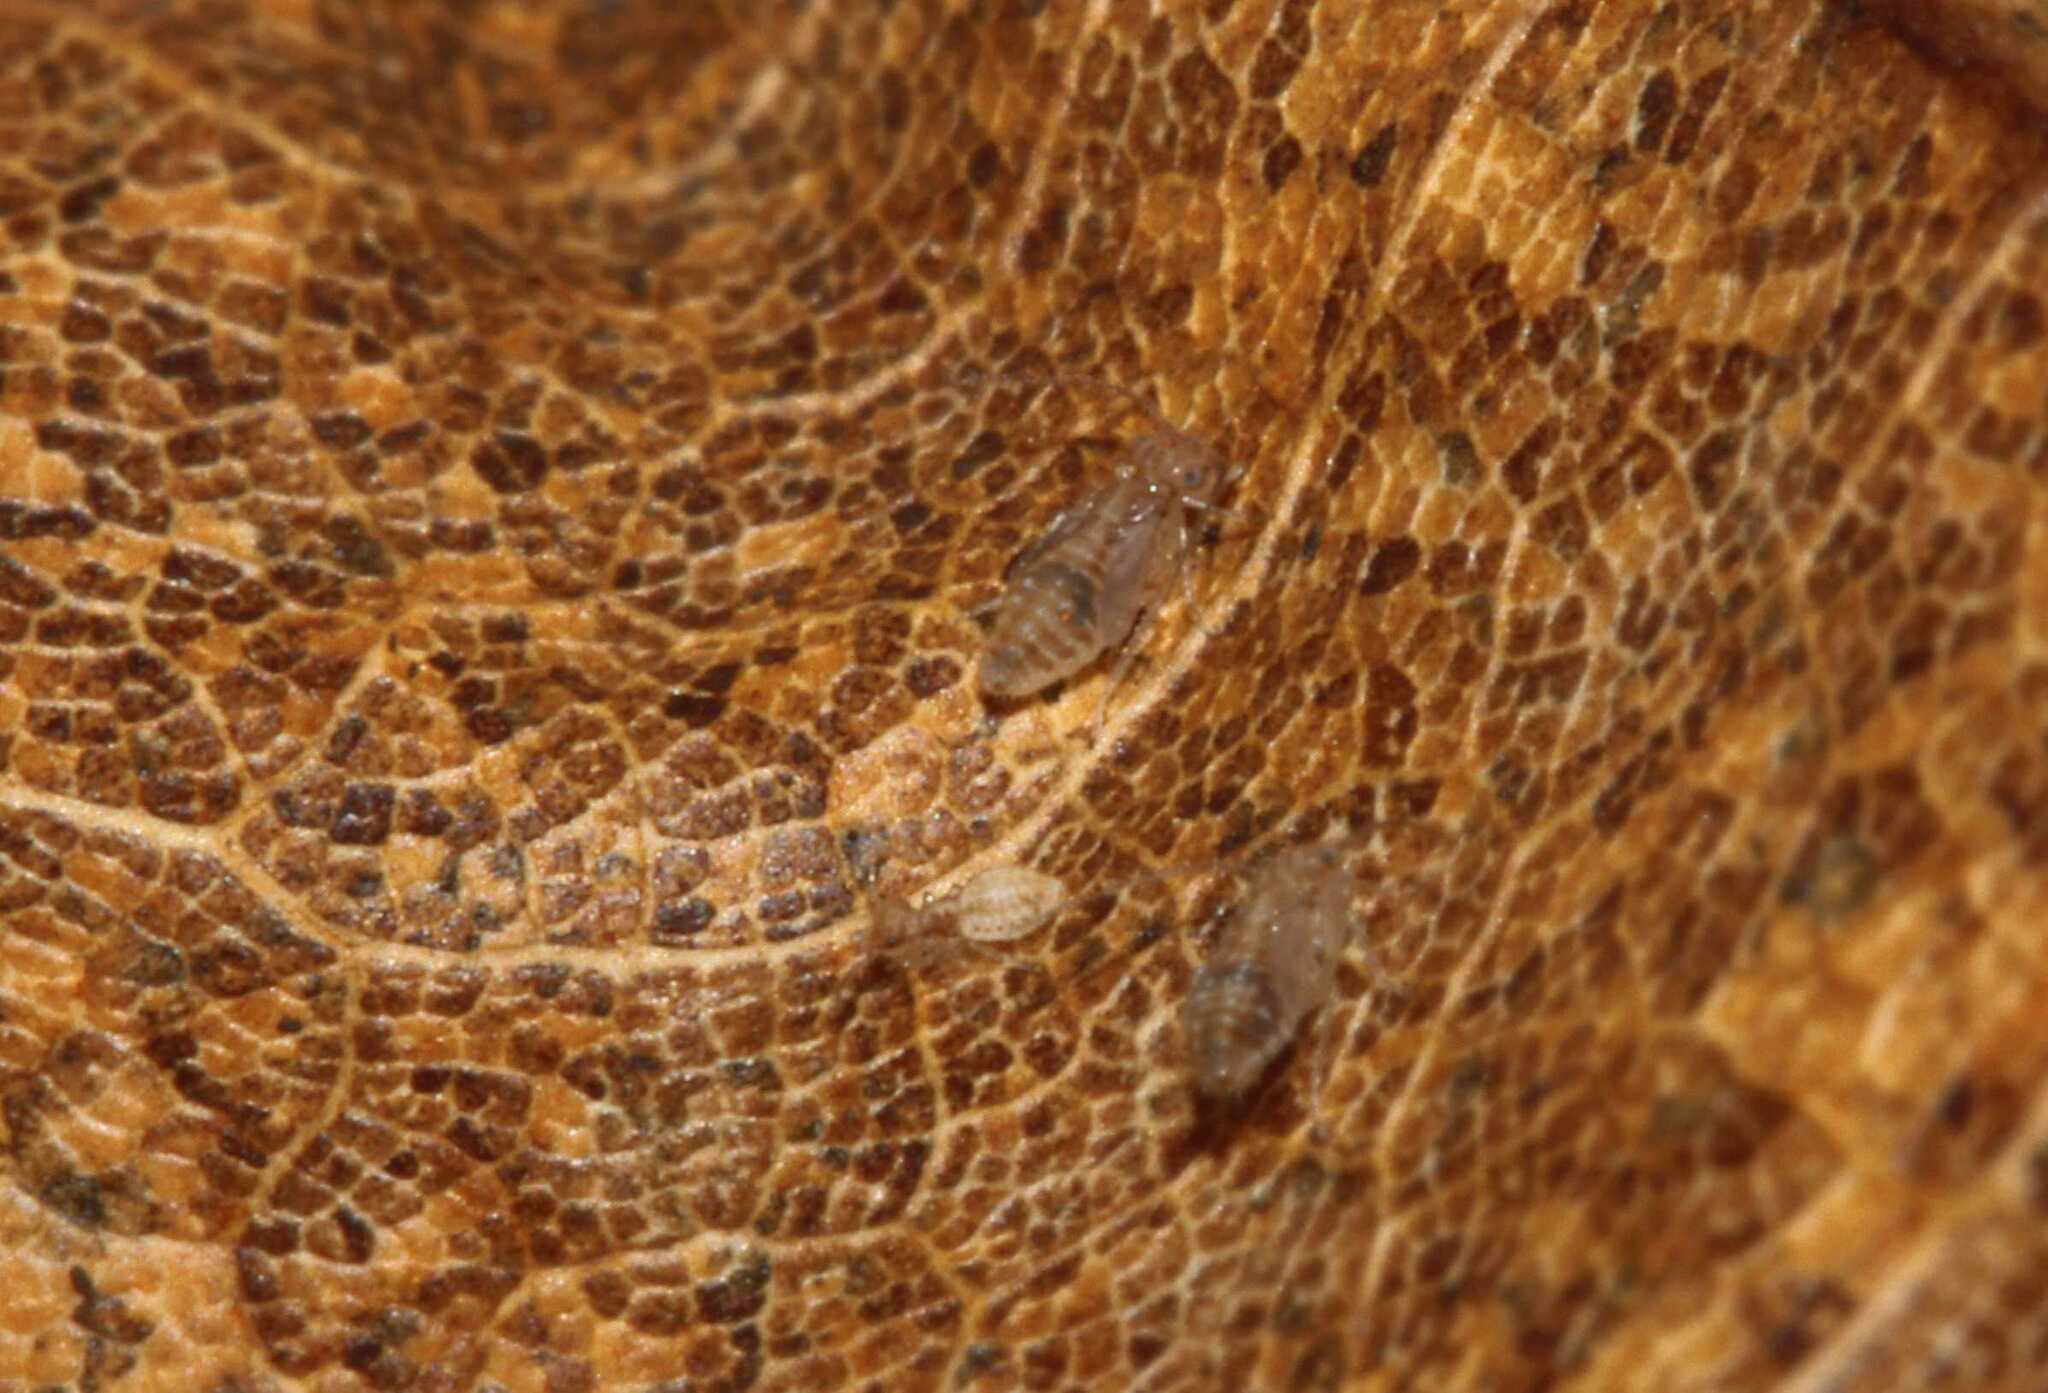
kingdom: Animalia
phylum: Arthropoda
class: Insecta
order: Psocodea
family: Ectopsocidae
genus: Ectopsocus
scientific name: Ectopsocus briggsi
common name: Ectopsocid
